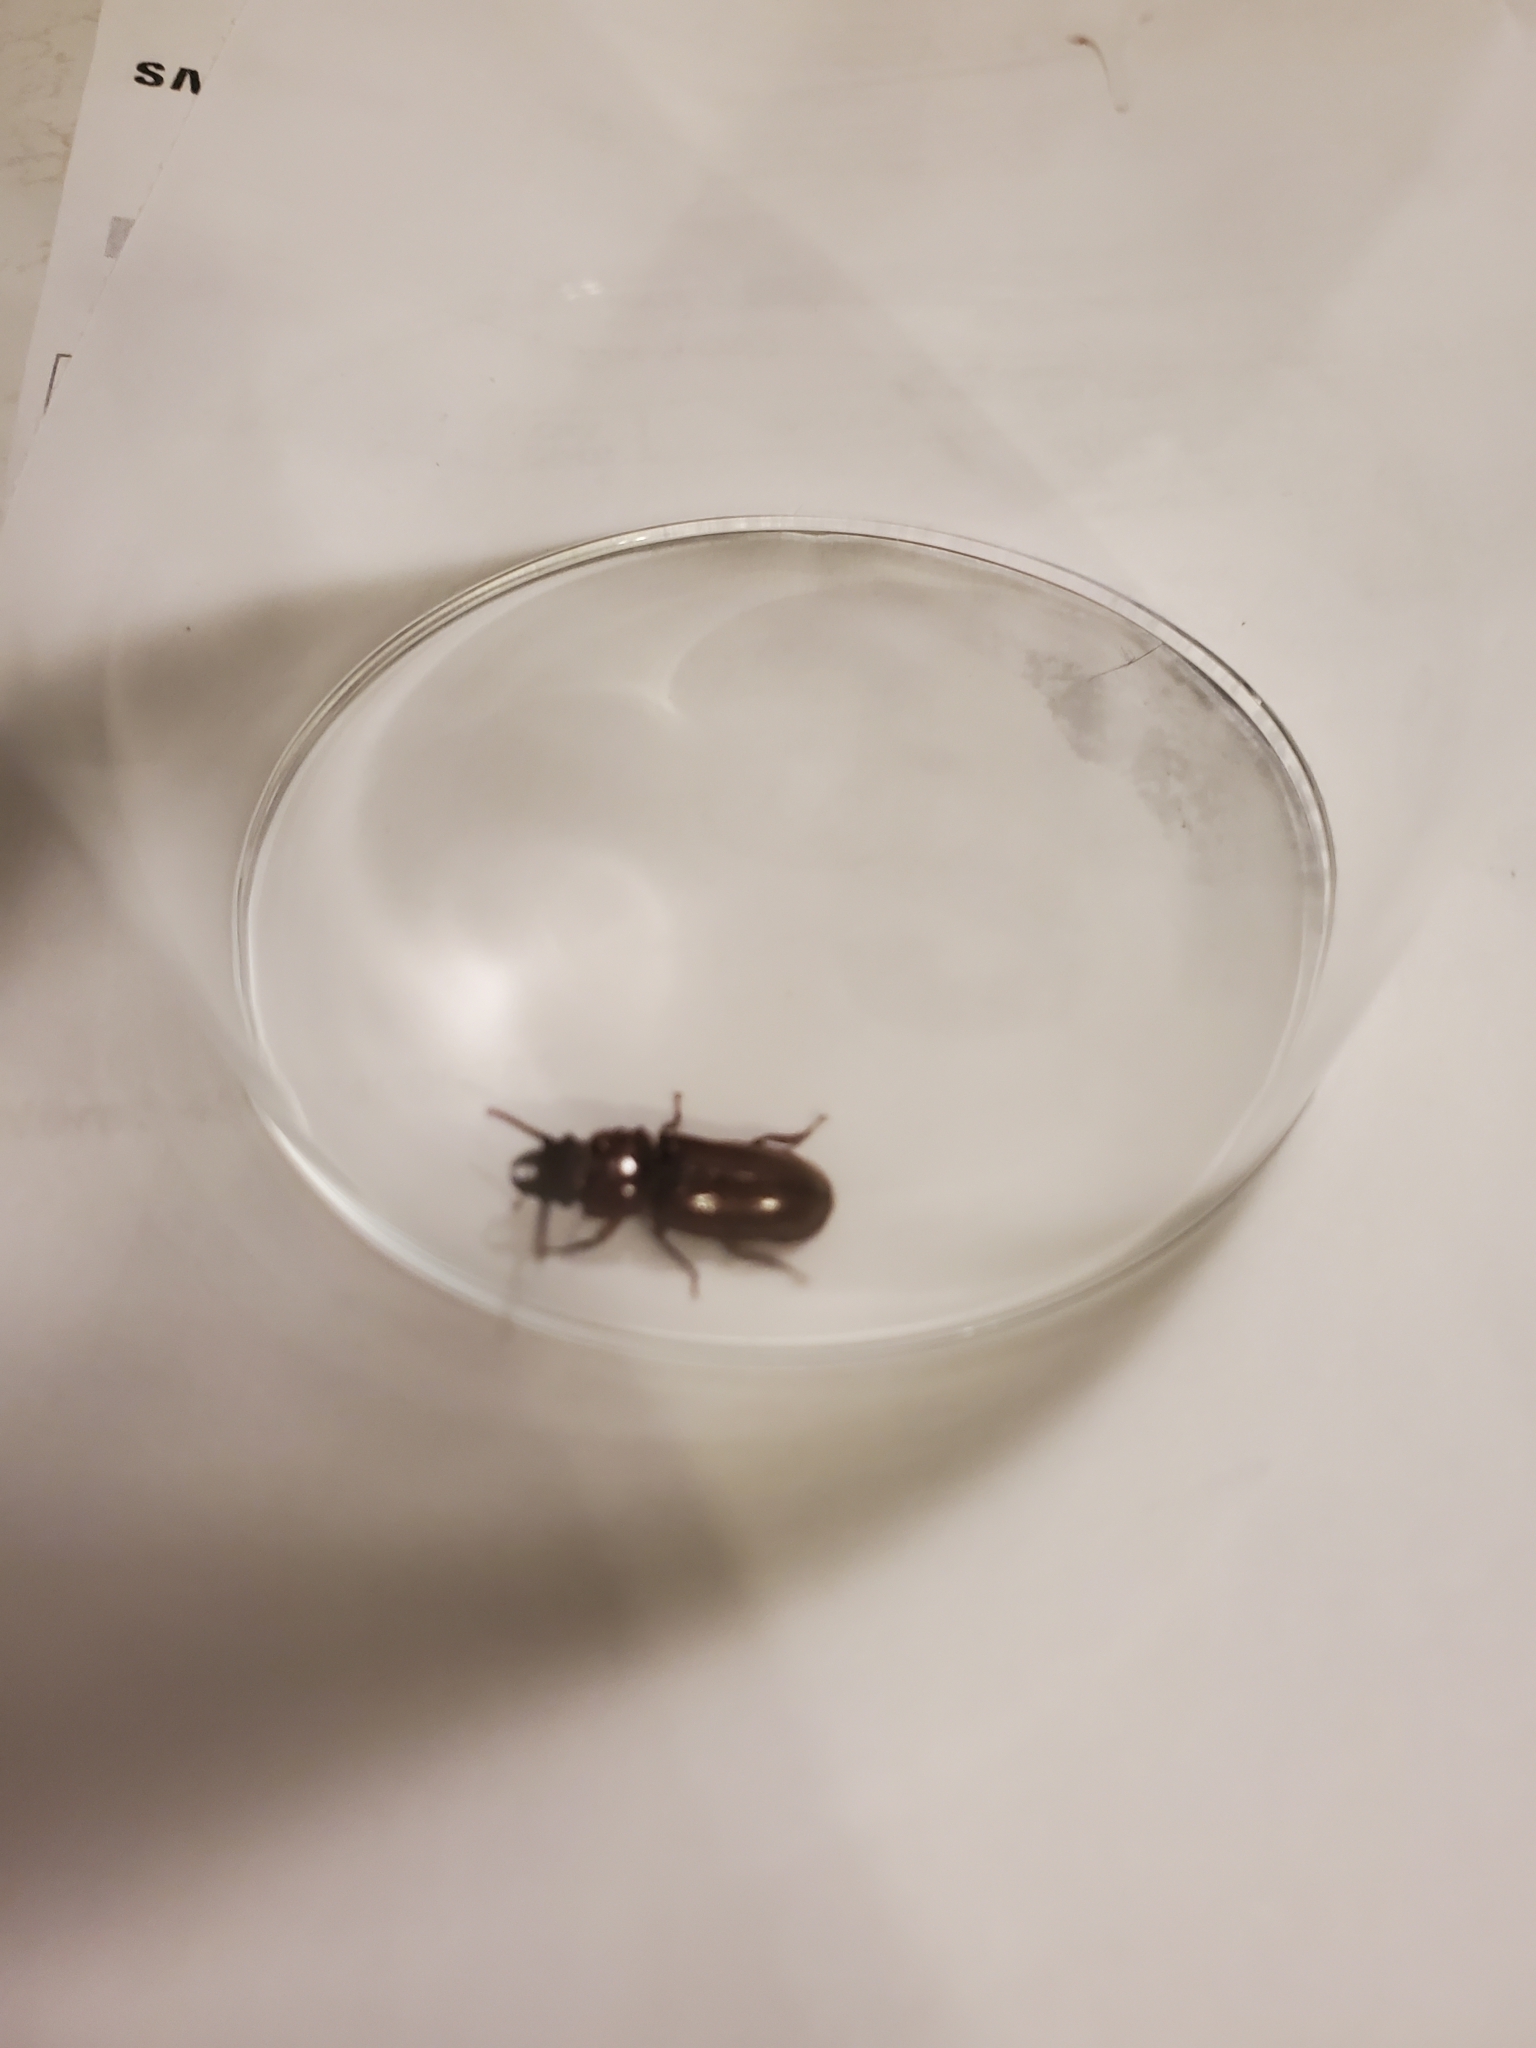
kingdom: Animalia
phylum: Arthropoda
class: Insecta
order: Coleoptera
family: Cerambycidae
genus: Neandra
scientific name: Neandra brunnea
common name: Pole borer
